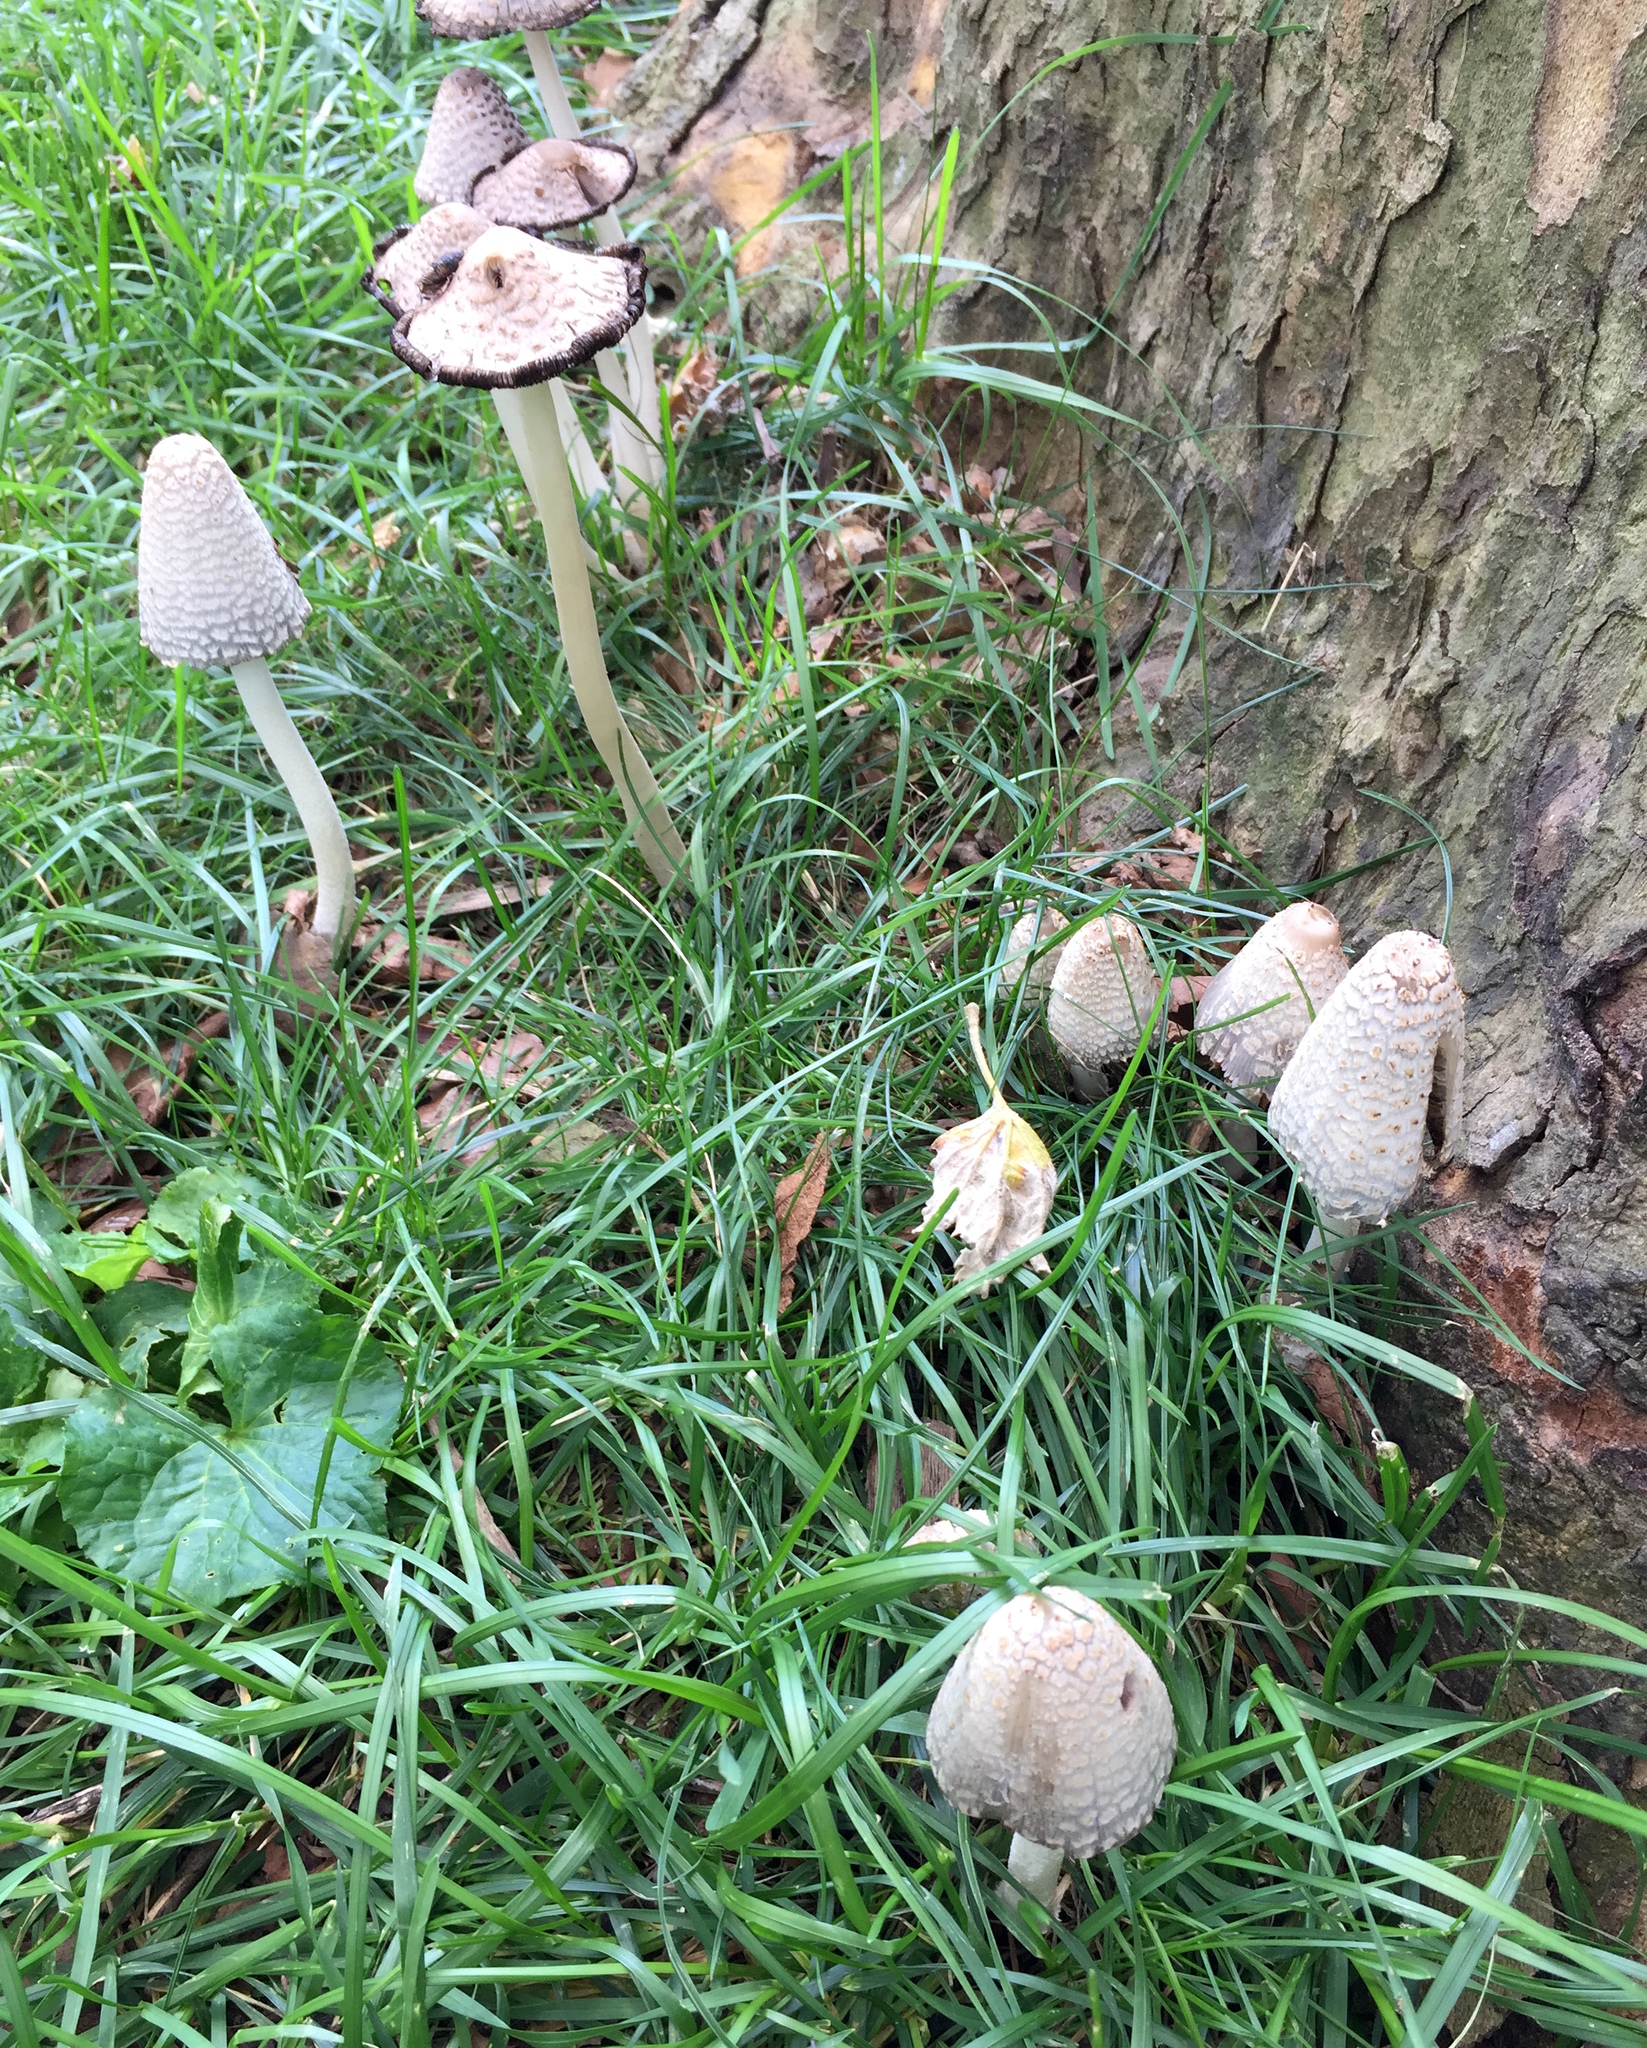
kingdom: Fungi
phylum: Basidiomycota
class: Agaricomycetes
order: Agaricales
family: Psathyrellaceae
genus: Coprinopsis
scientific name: Coprinopsis variegata
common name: Scaly ink cap
